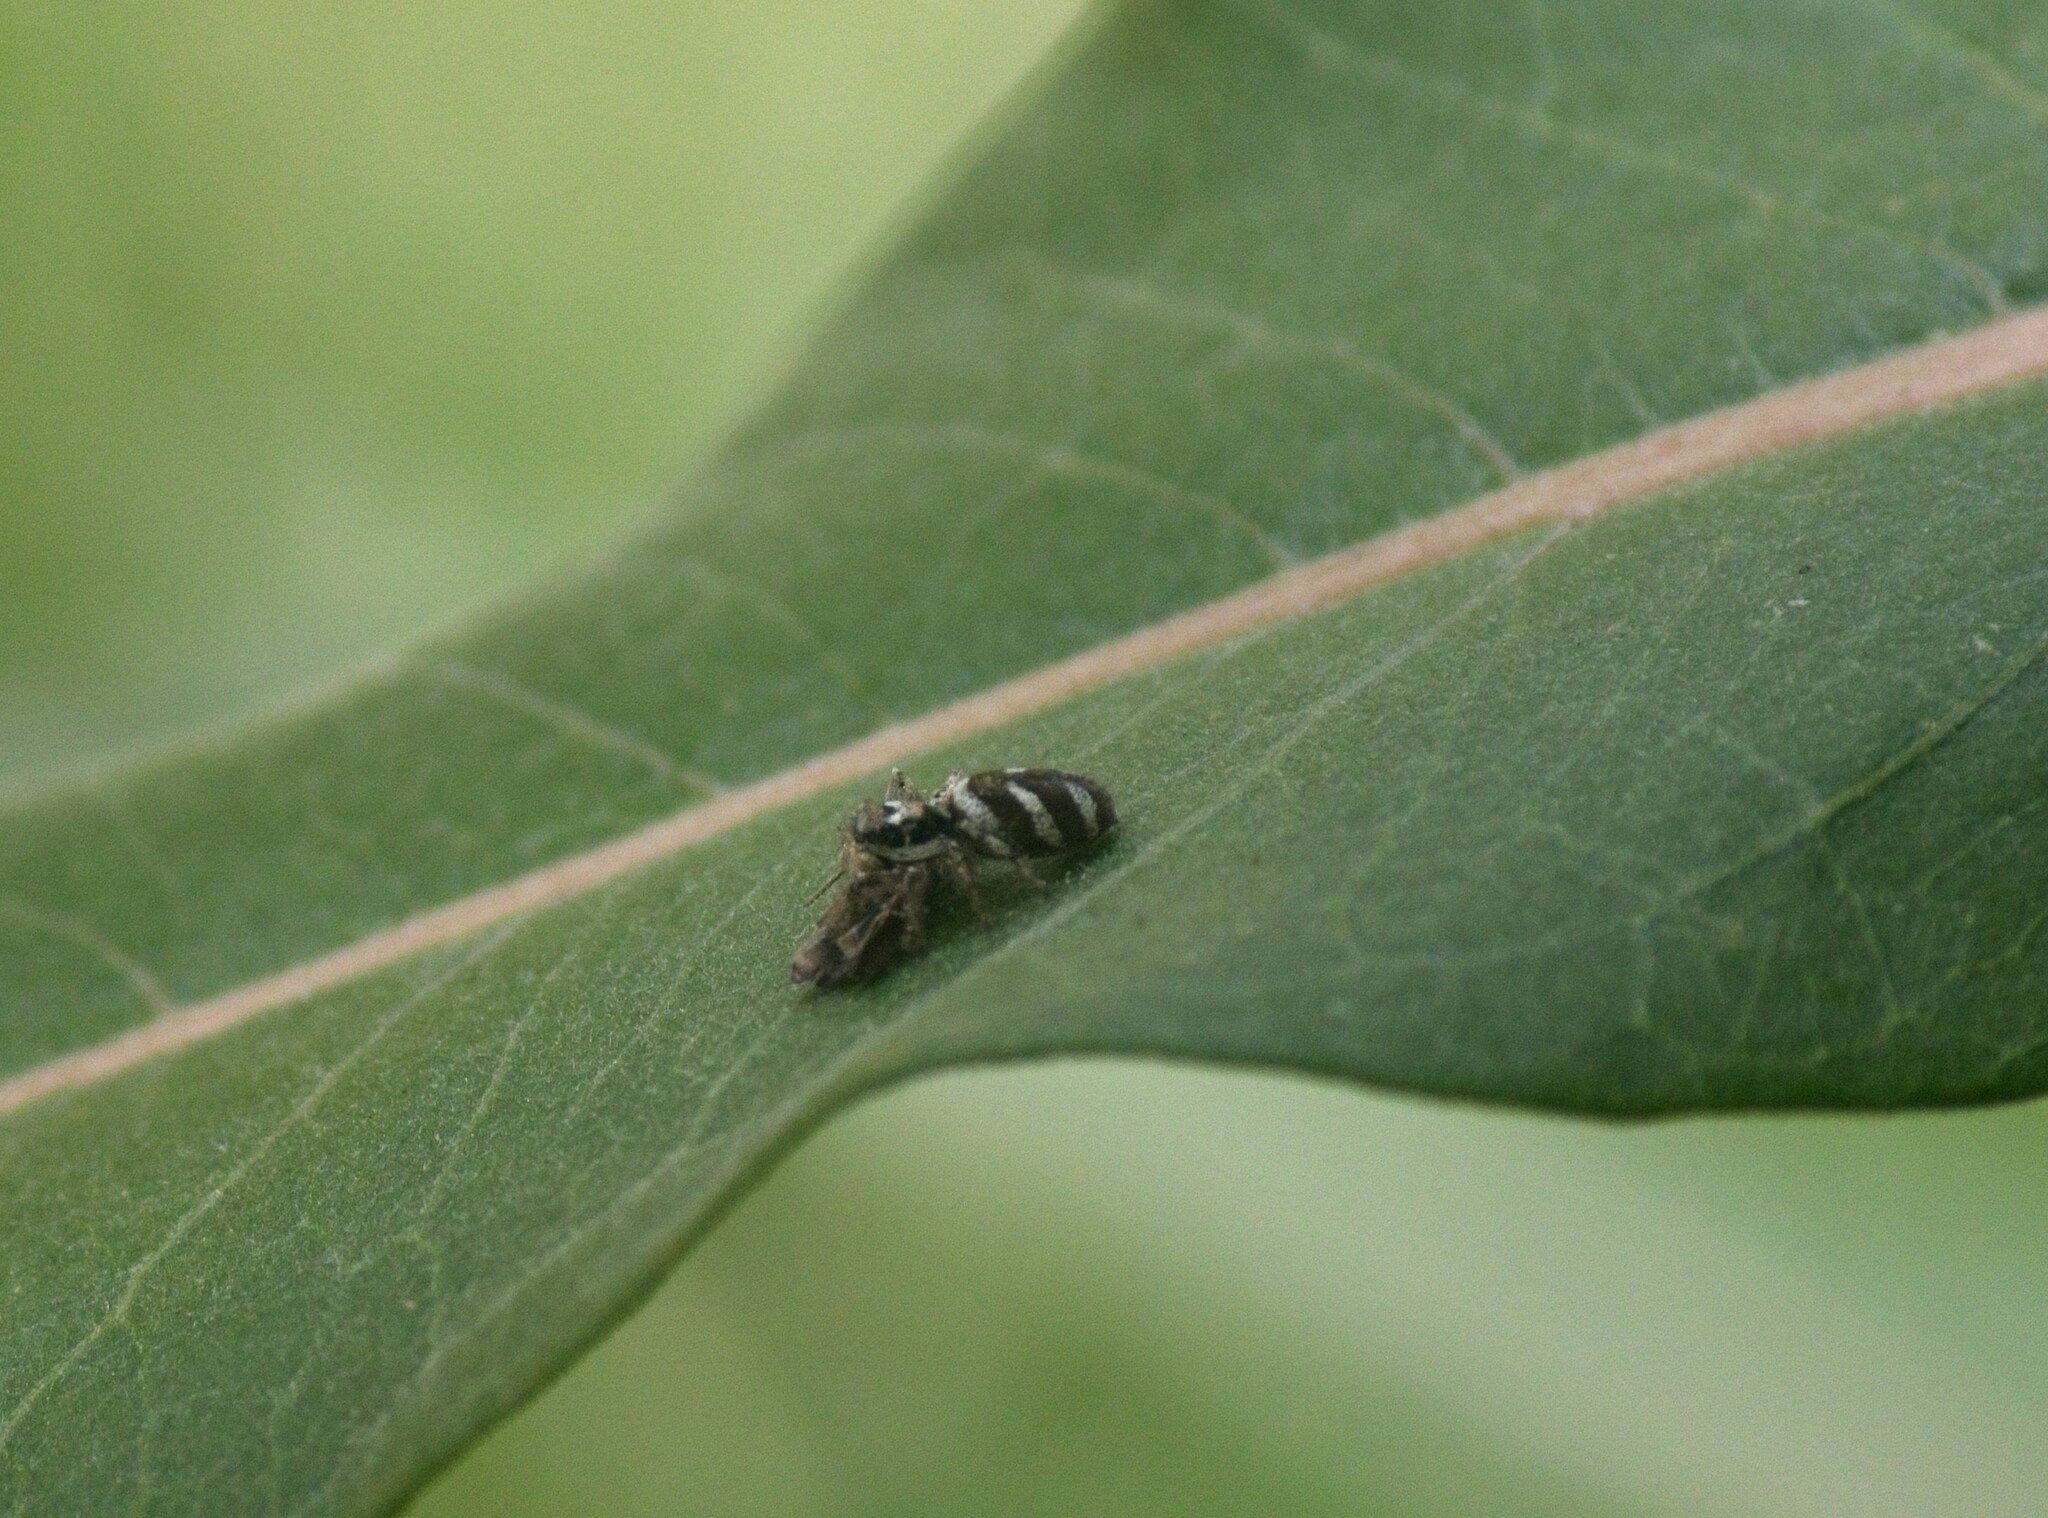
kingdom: Animalia
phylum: Arthropoda
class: Arachnida
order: Araneae
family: Salticidae
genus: Salticus
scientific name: Salticus scenicus
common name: Zebra jumper
